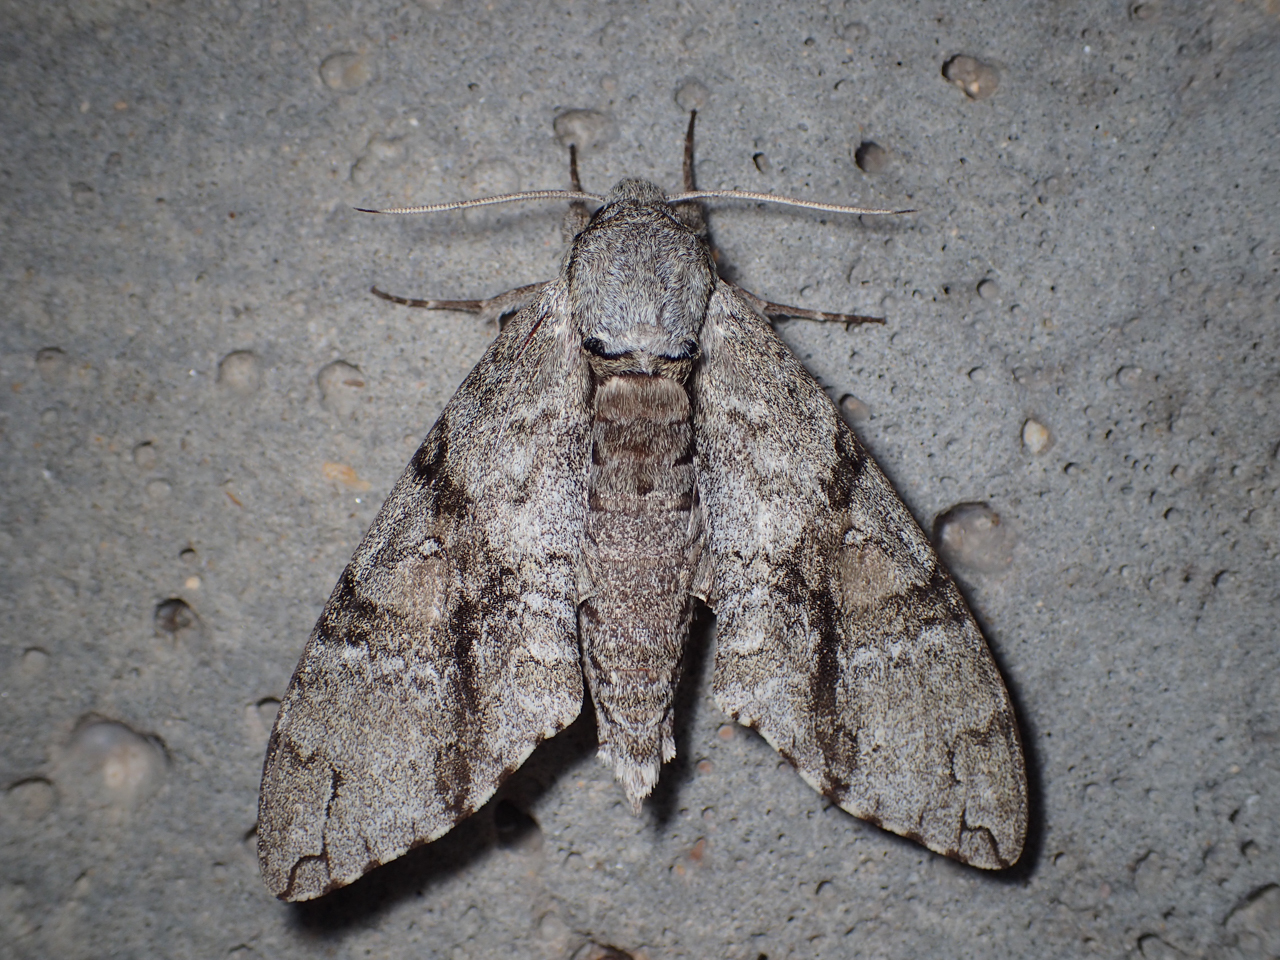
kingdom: Animalia
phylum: Arthropoda
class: Insecta
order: Lepidoptera
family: Sphingidae
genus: Manduca
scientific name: Manduca jasminearum
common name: Ash sphinx
